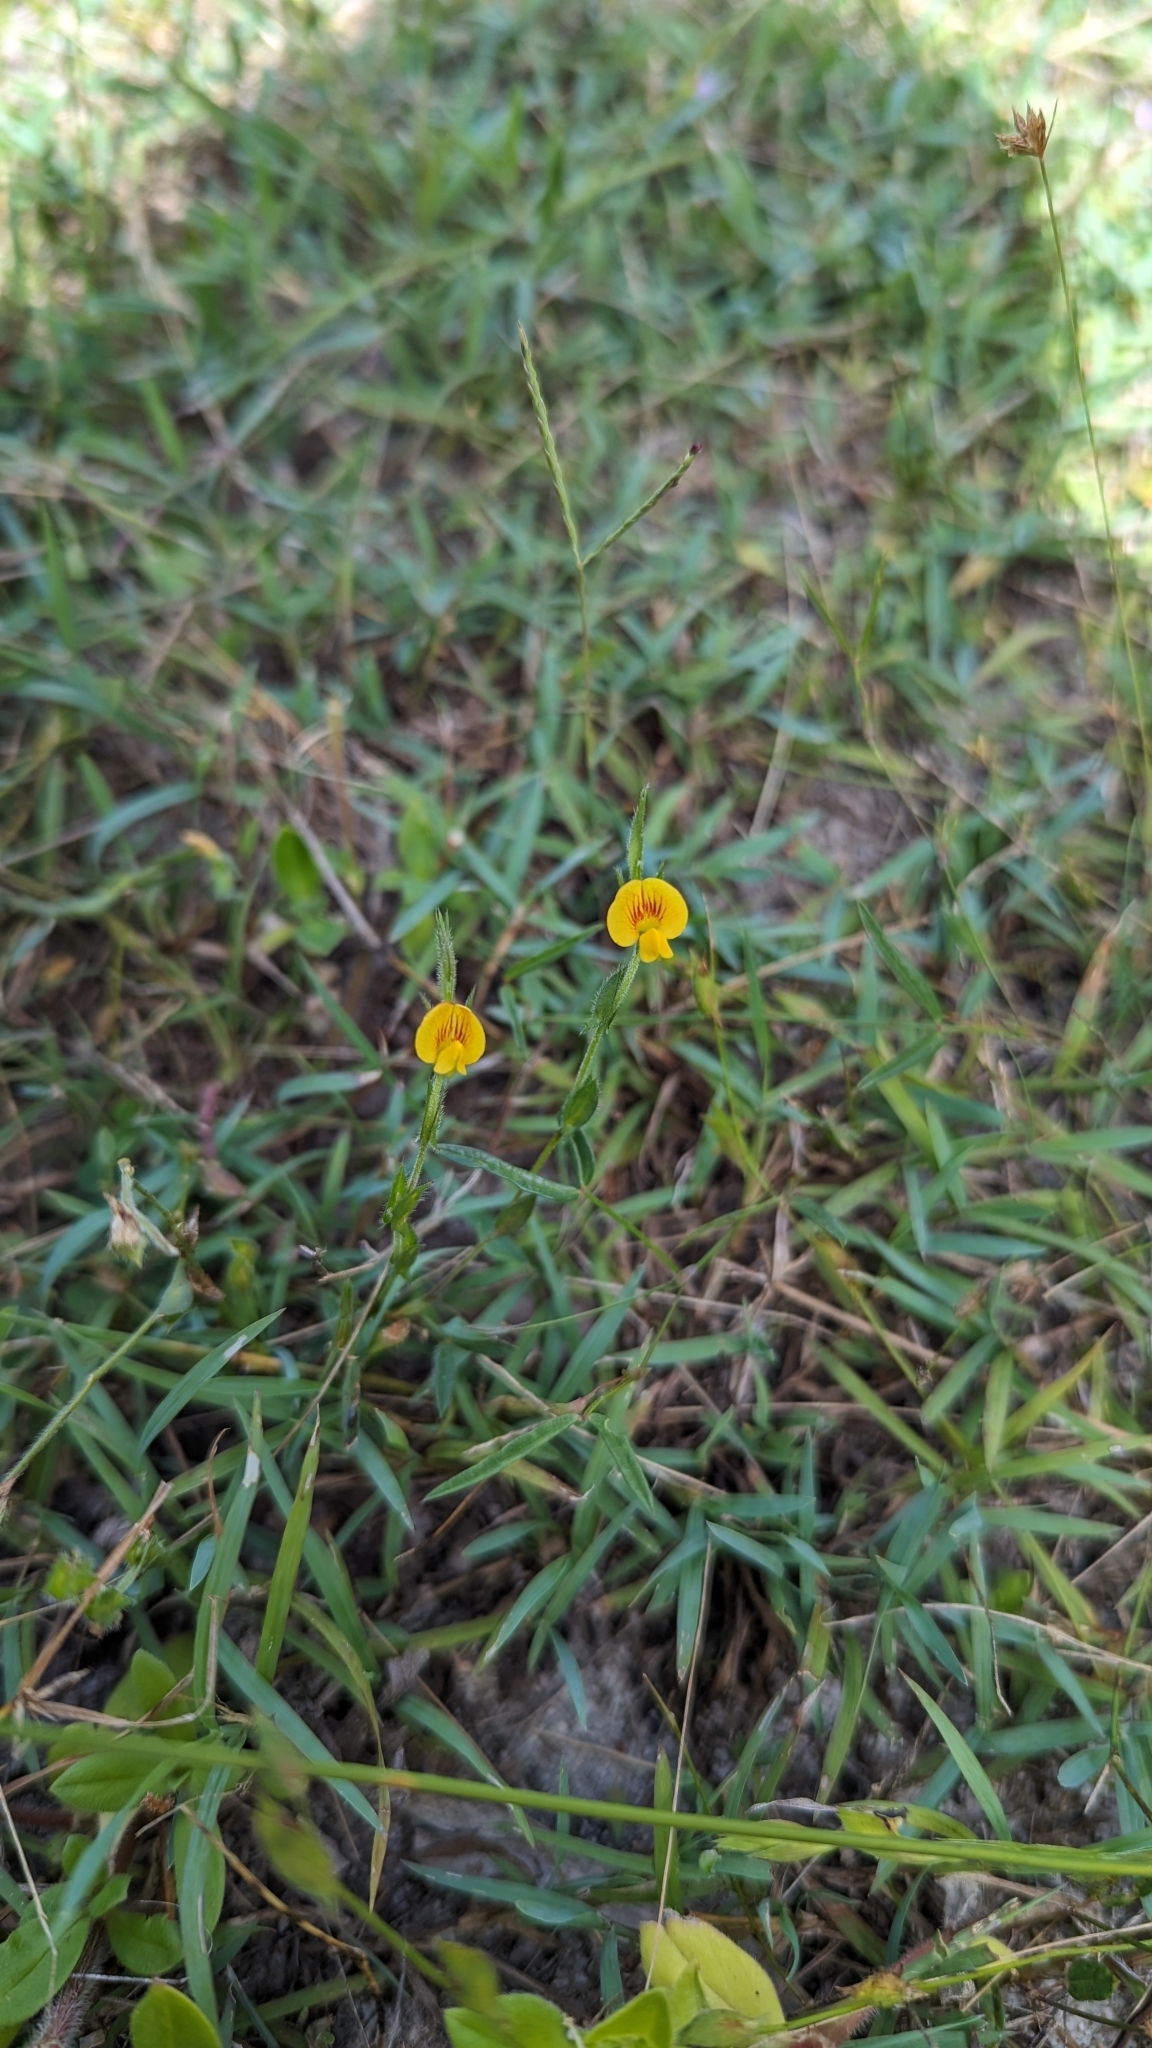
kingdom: Plantae
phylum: Tracheophyta
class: Magnoliopsida
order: Fabales
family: Fabaceae
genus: Zornia
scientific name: Zornia dyctiocarpa
